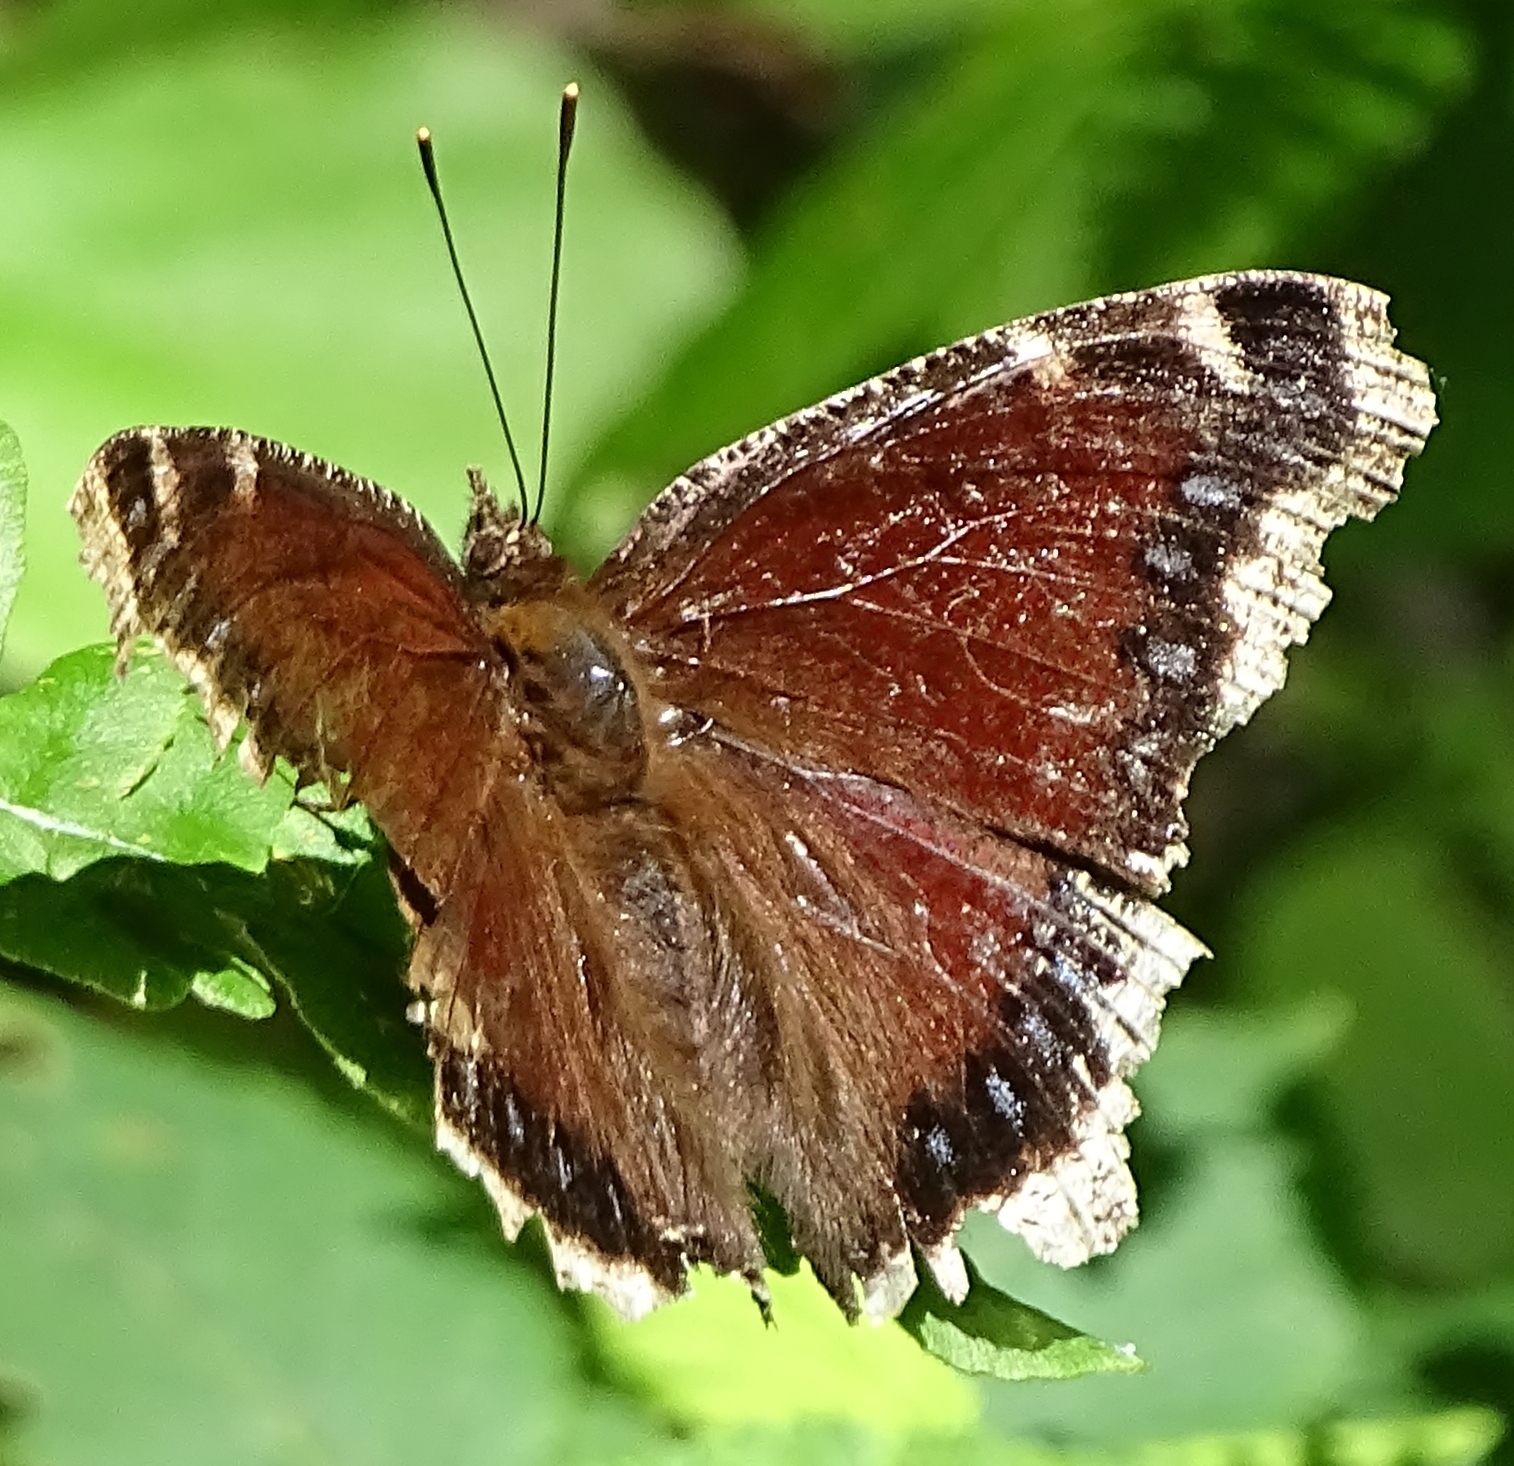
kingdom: Animalia
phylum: Arthropoda
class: Insecta
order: Lepidoptera
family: Nymphalidae
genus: Nymphalis
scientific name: Nymphalis antiopa
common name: Camberwell beauty
